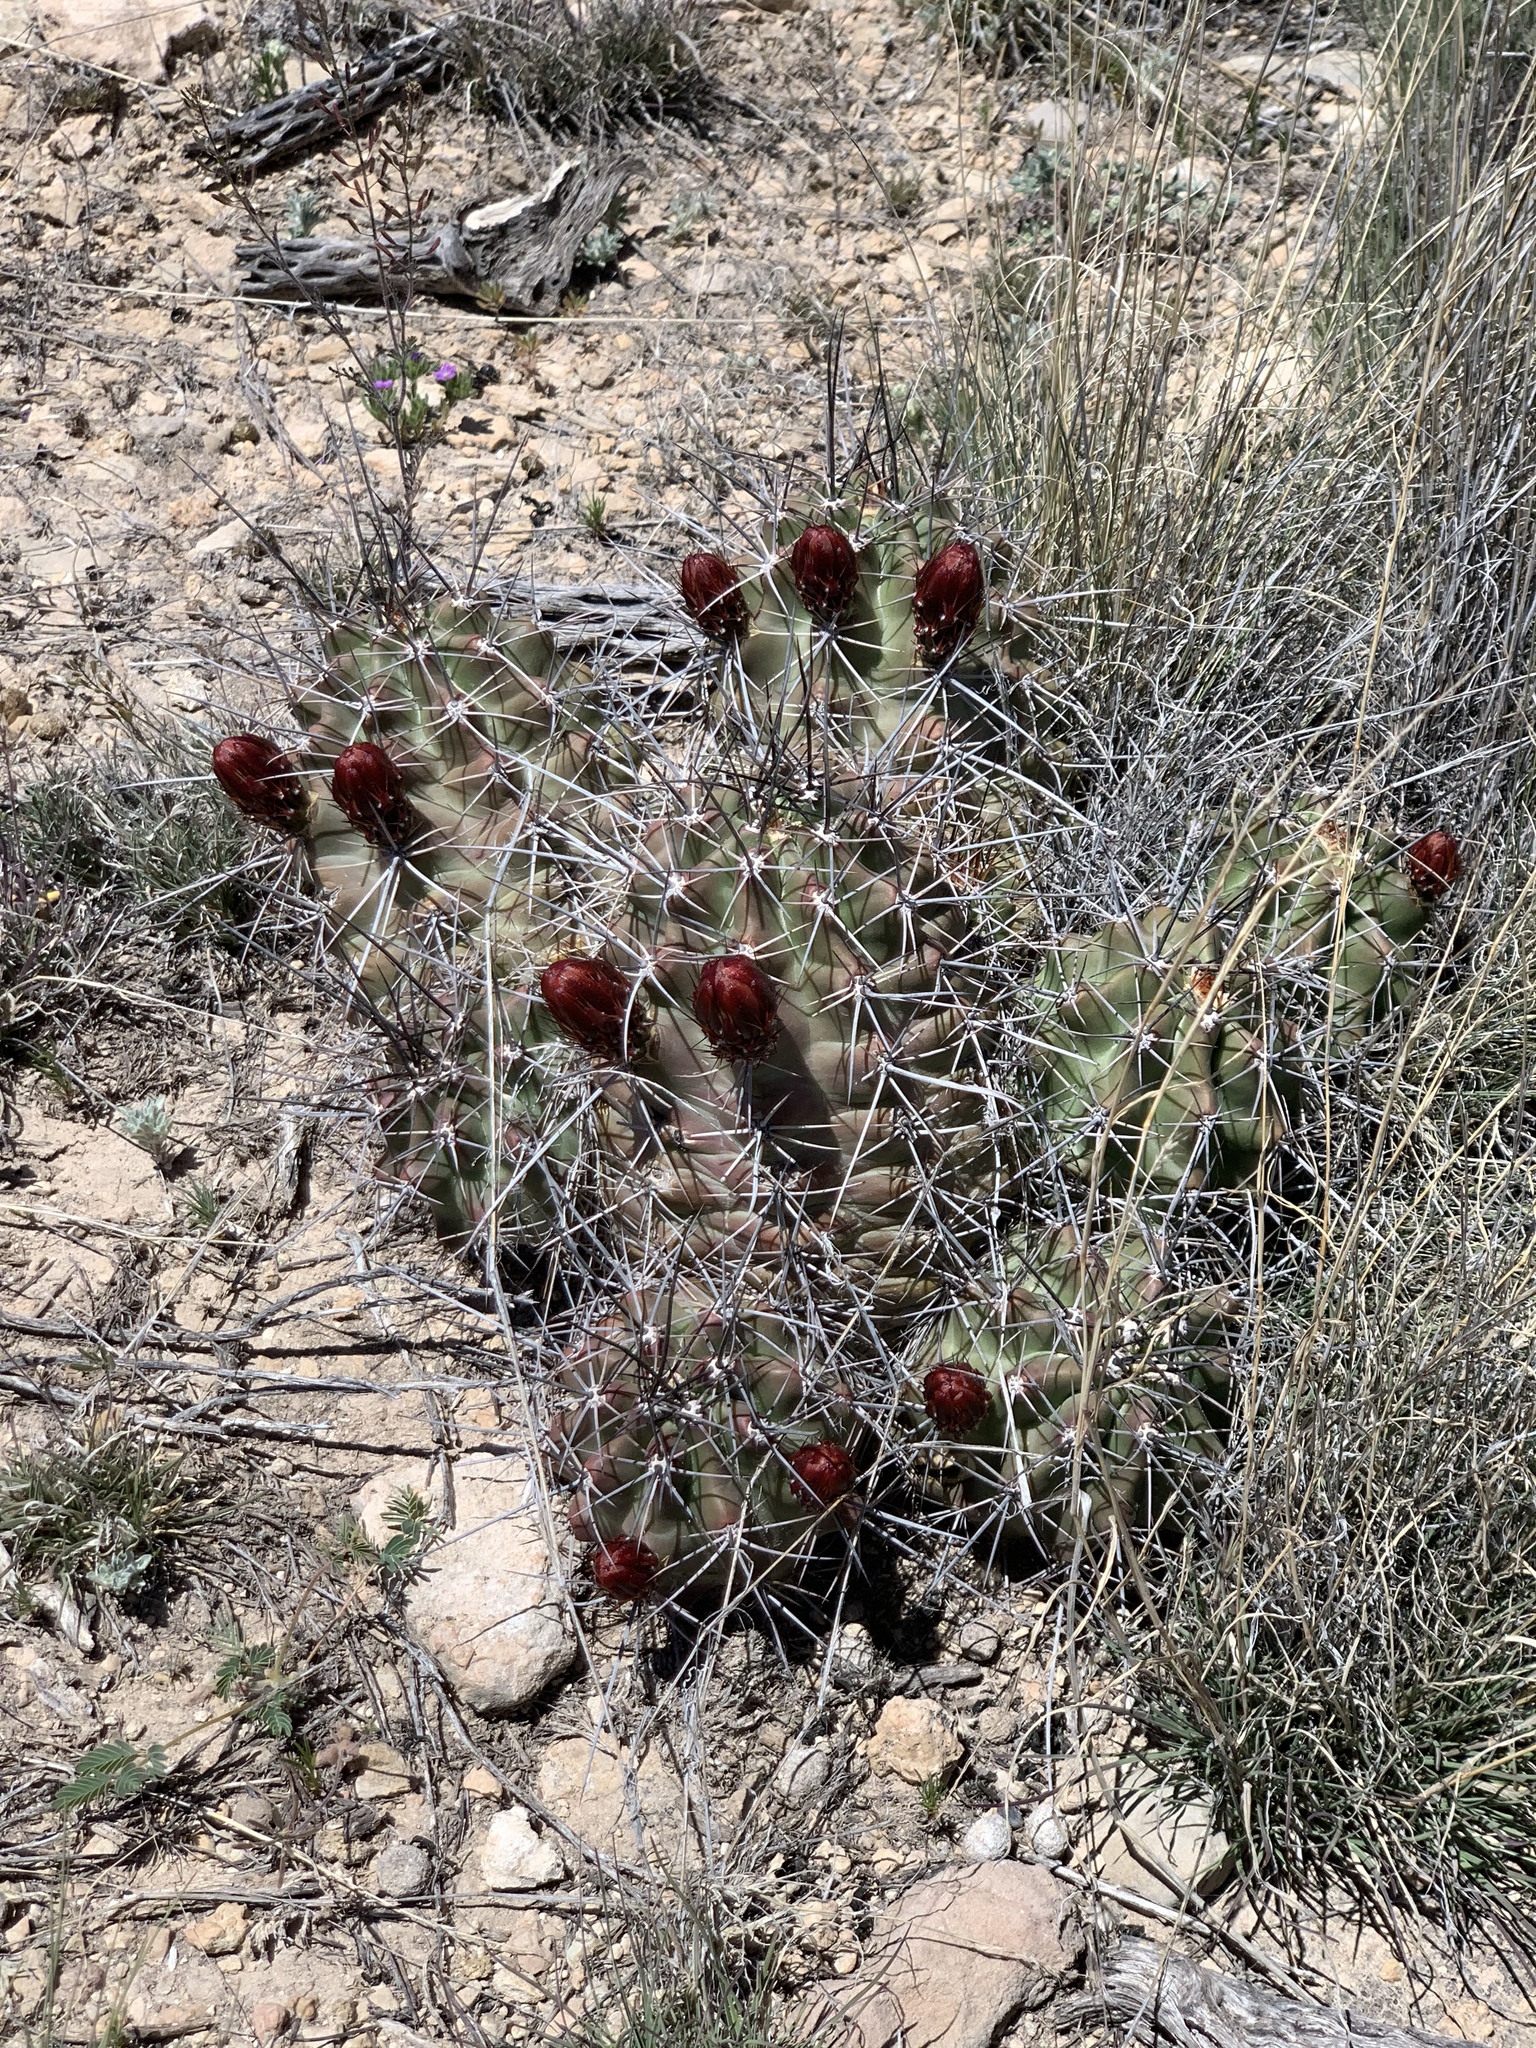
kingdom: Plantae
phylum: Tracheophyta
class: Magnoliopsida
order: Caryophyllales
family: Cactaceae
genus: Echinocereus
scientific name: Echinocereus coccineus
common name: Scarlet hedgehog cactus
